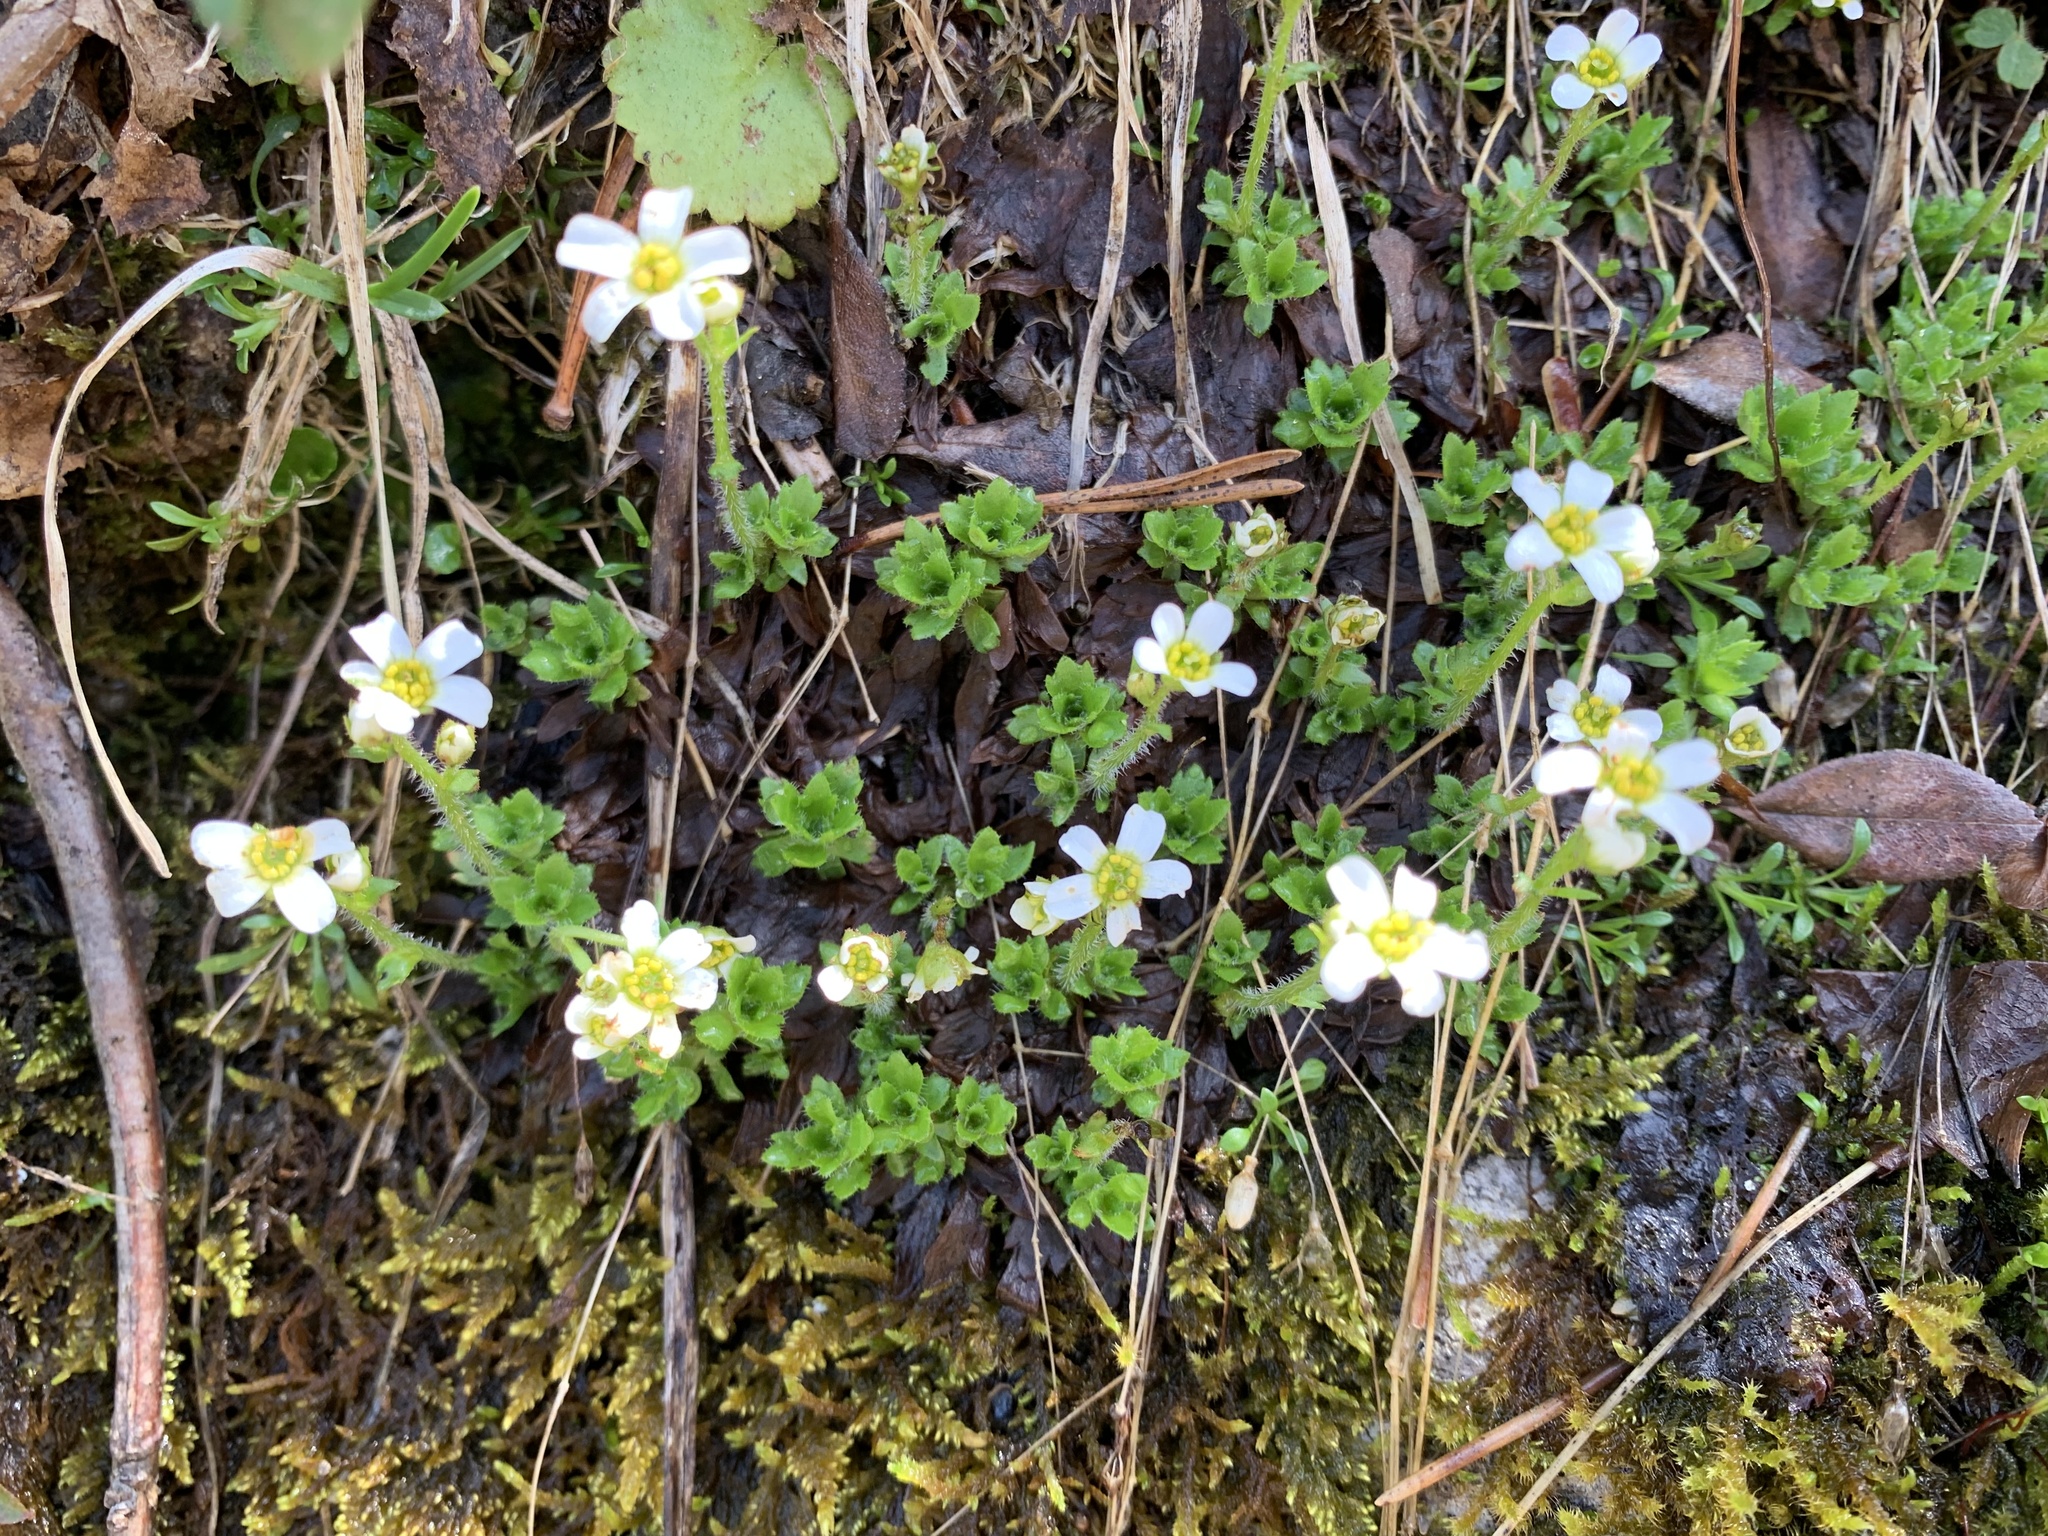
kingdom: Plantae
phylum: Tracheophyta
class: Magnoliopsida
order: Saxifragales
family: Saxifragaceae
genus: Saxifraga
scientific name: Saxifraga androsacea
